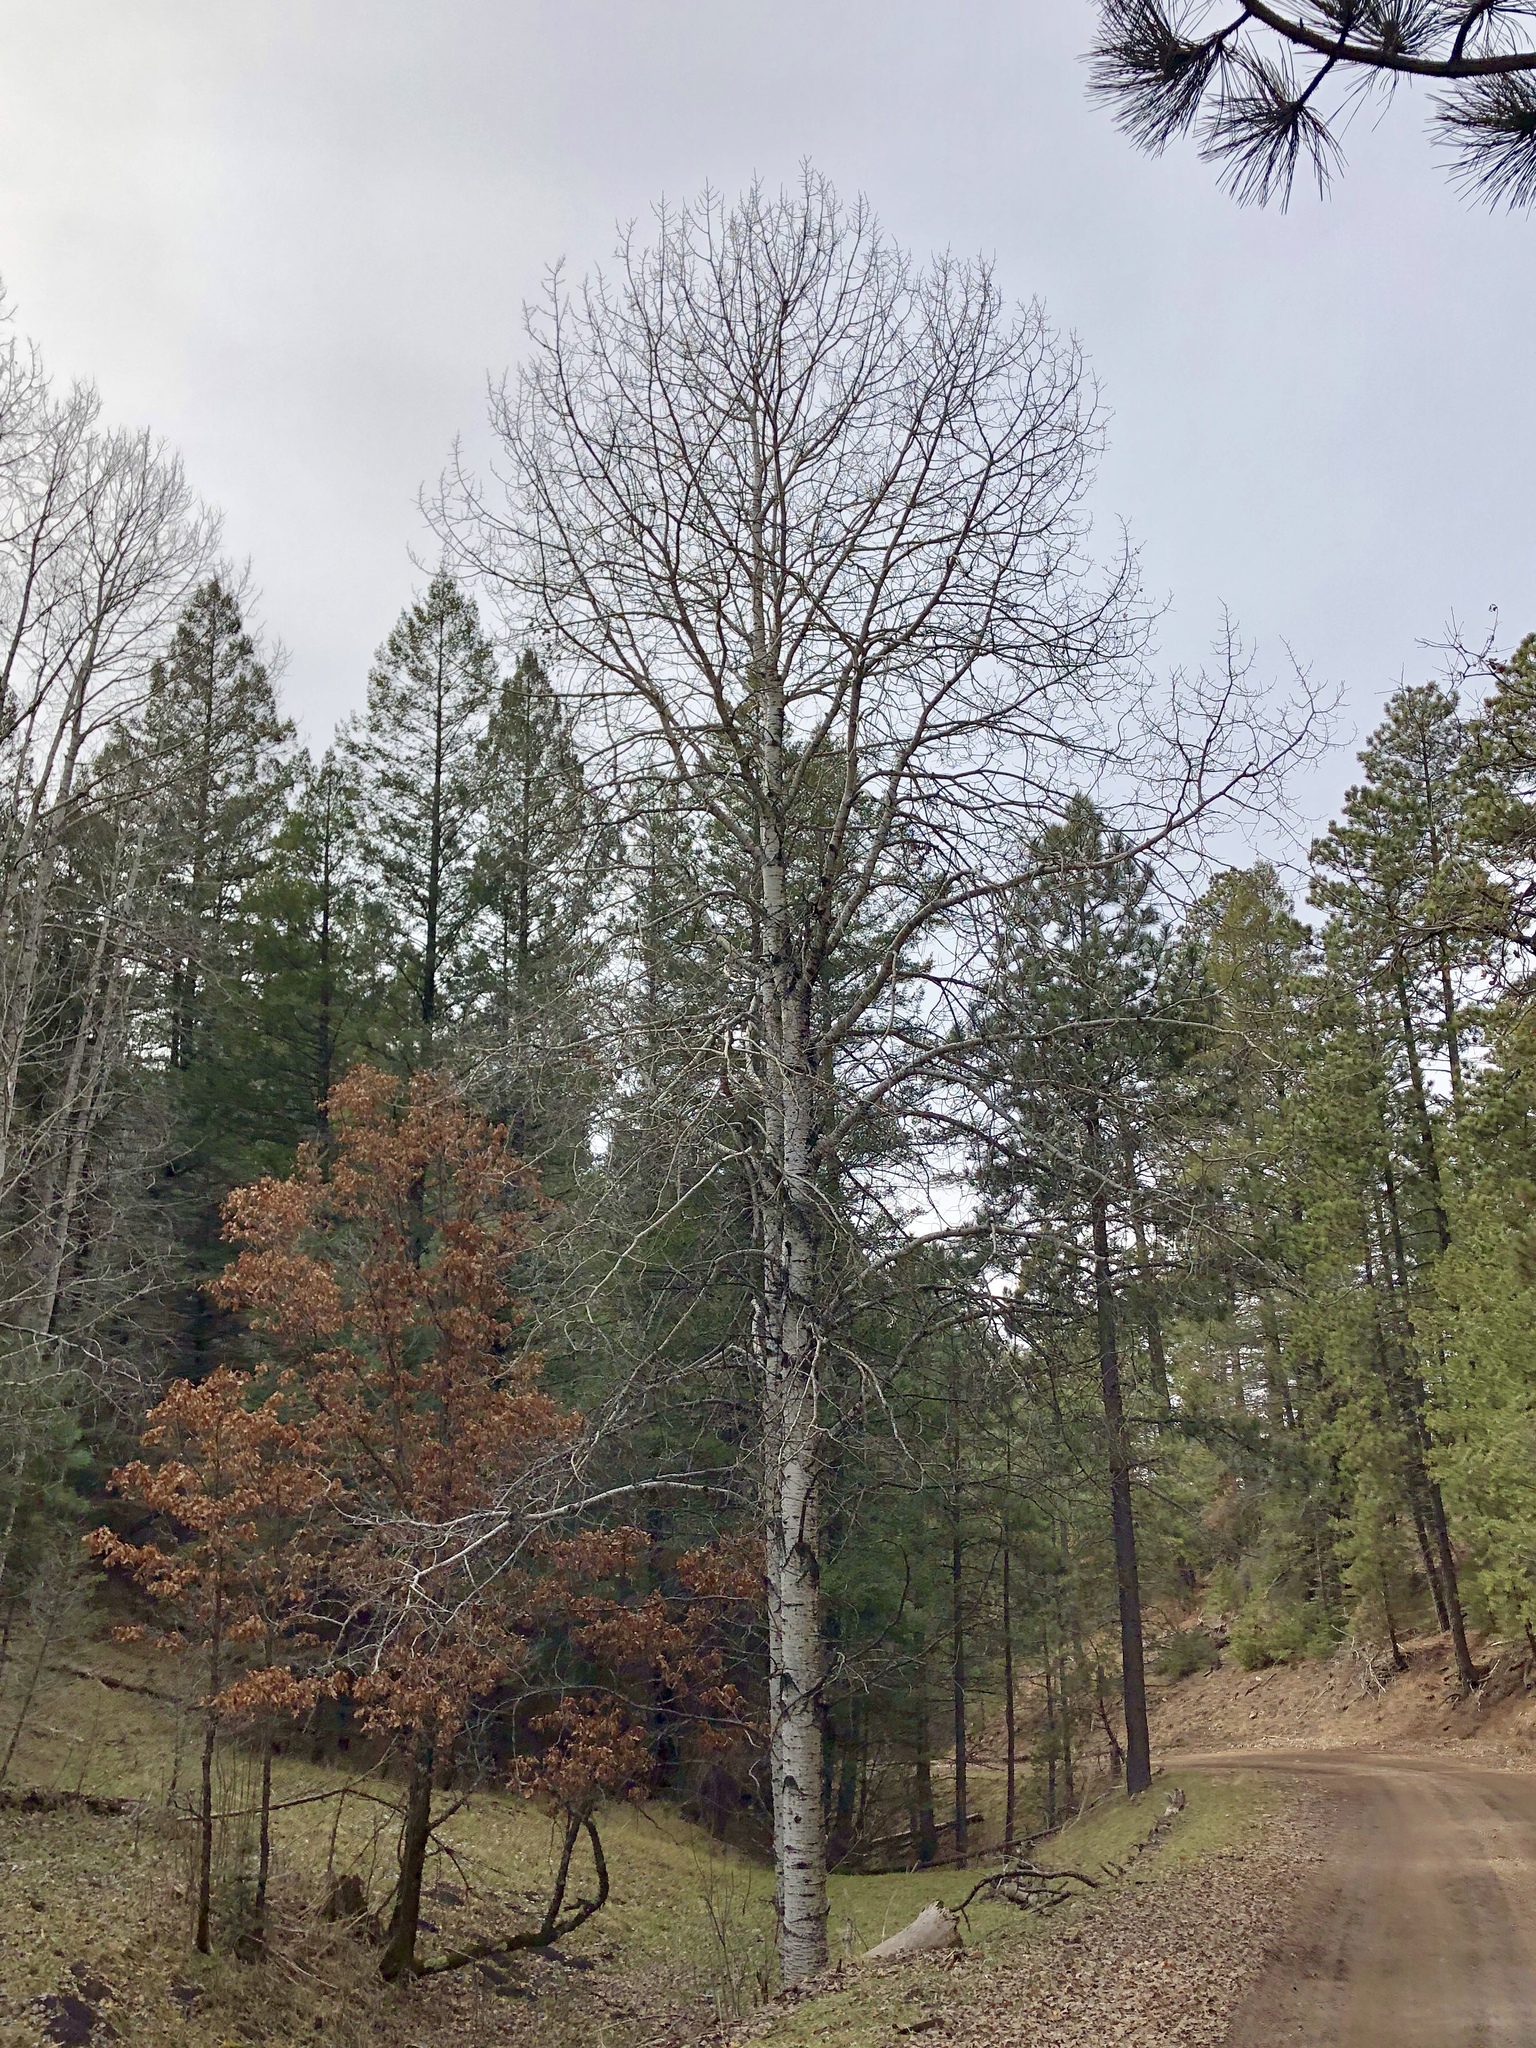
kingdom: Plantae
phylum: Tracheophyta
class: Magnoliopsida
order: Malpighiales
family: Salicaceae
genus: Populus
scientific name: Populus tremuloides
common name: Quaking aspen
